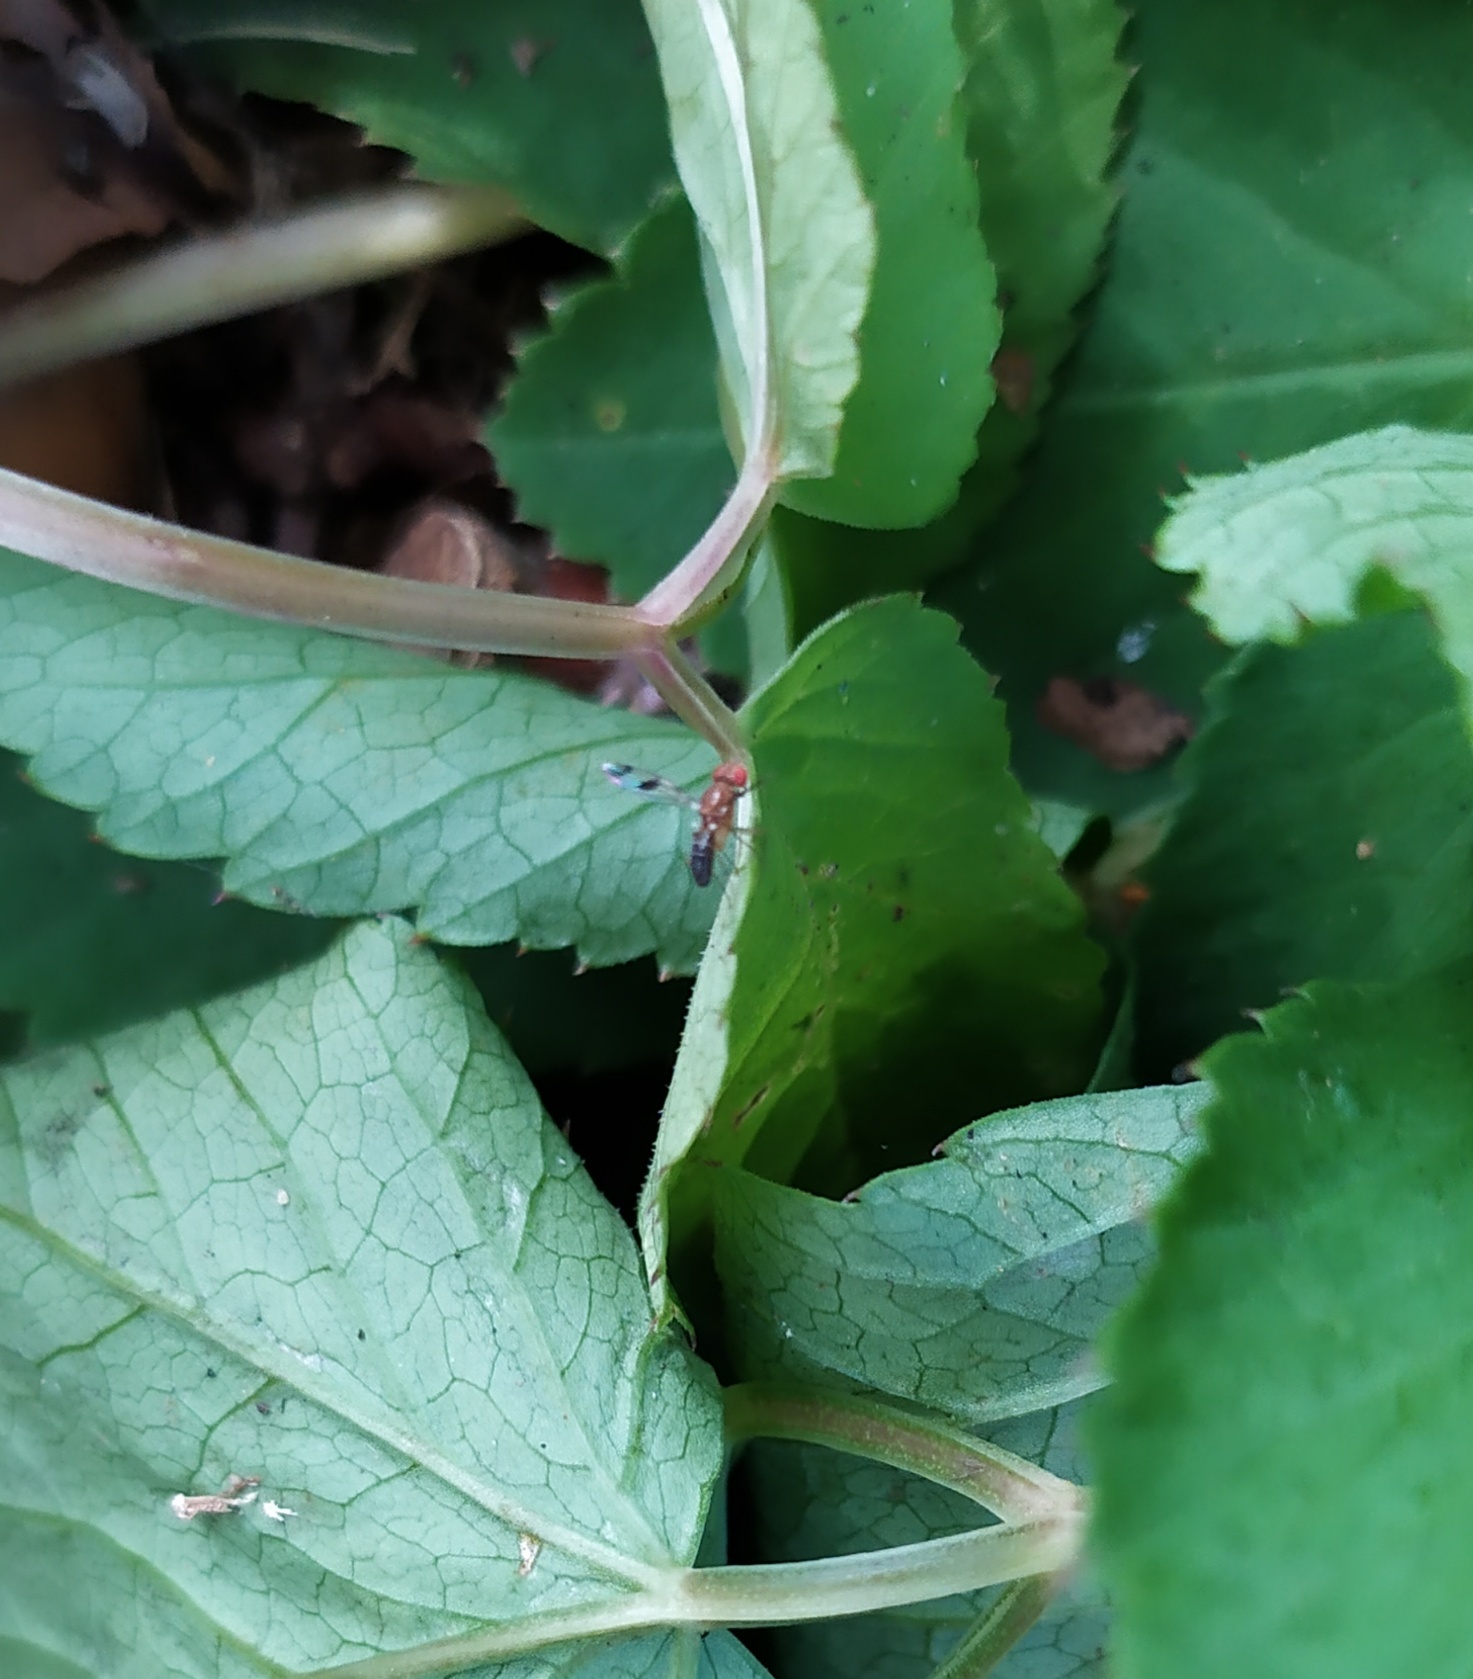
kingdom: Animalia
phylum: Arthropoda
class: Insecta
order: Diptera
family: Drosophilidae
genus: Chymomyza
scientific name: Chymomyza amoena
